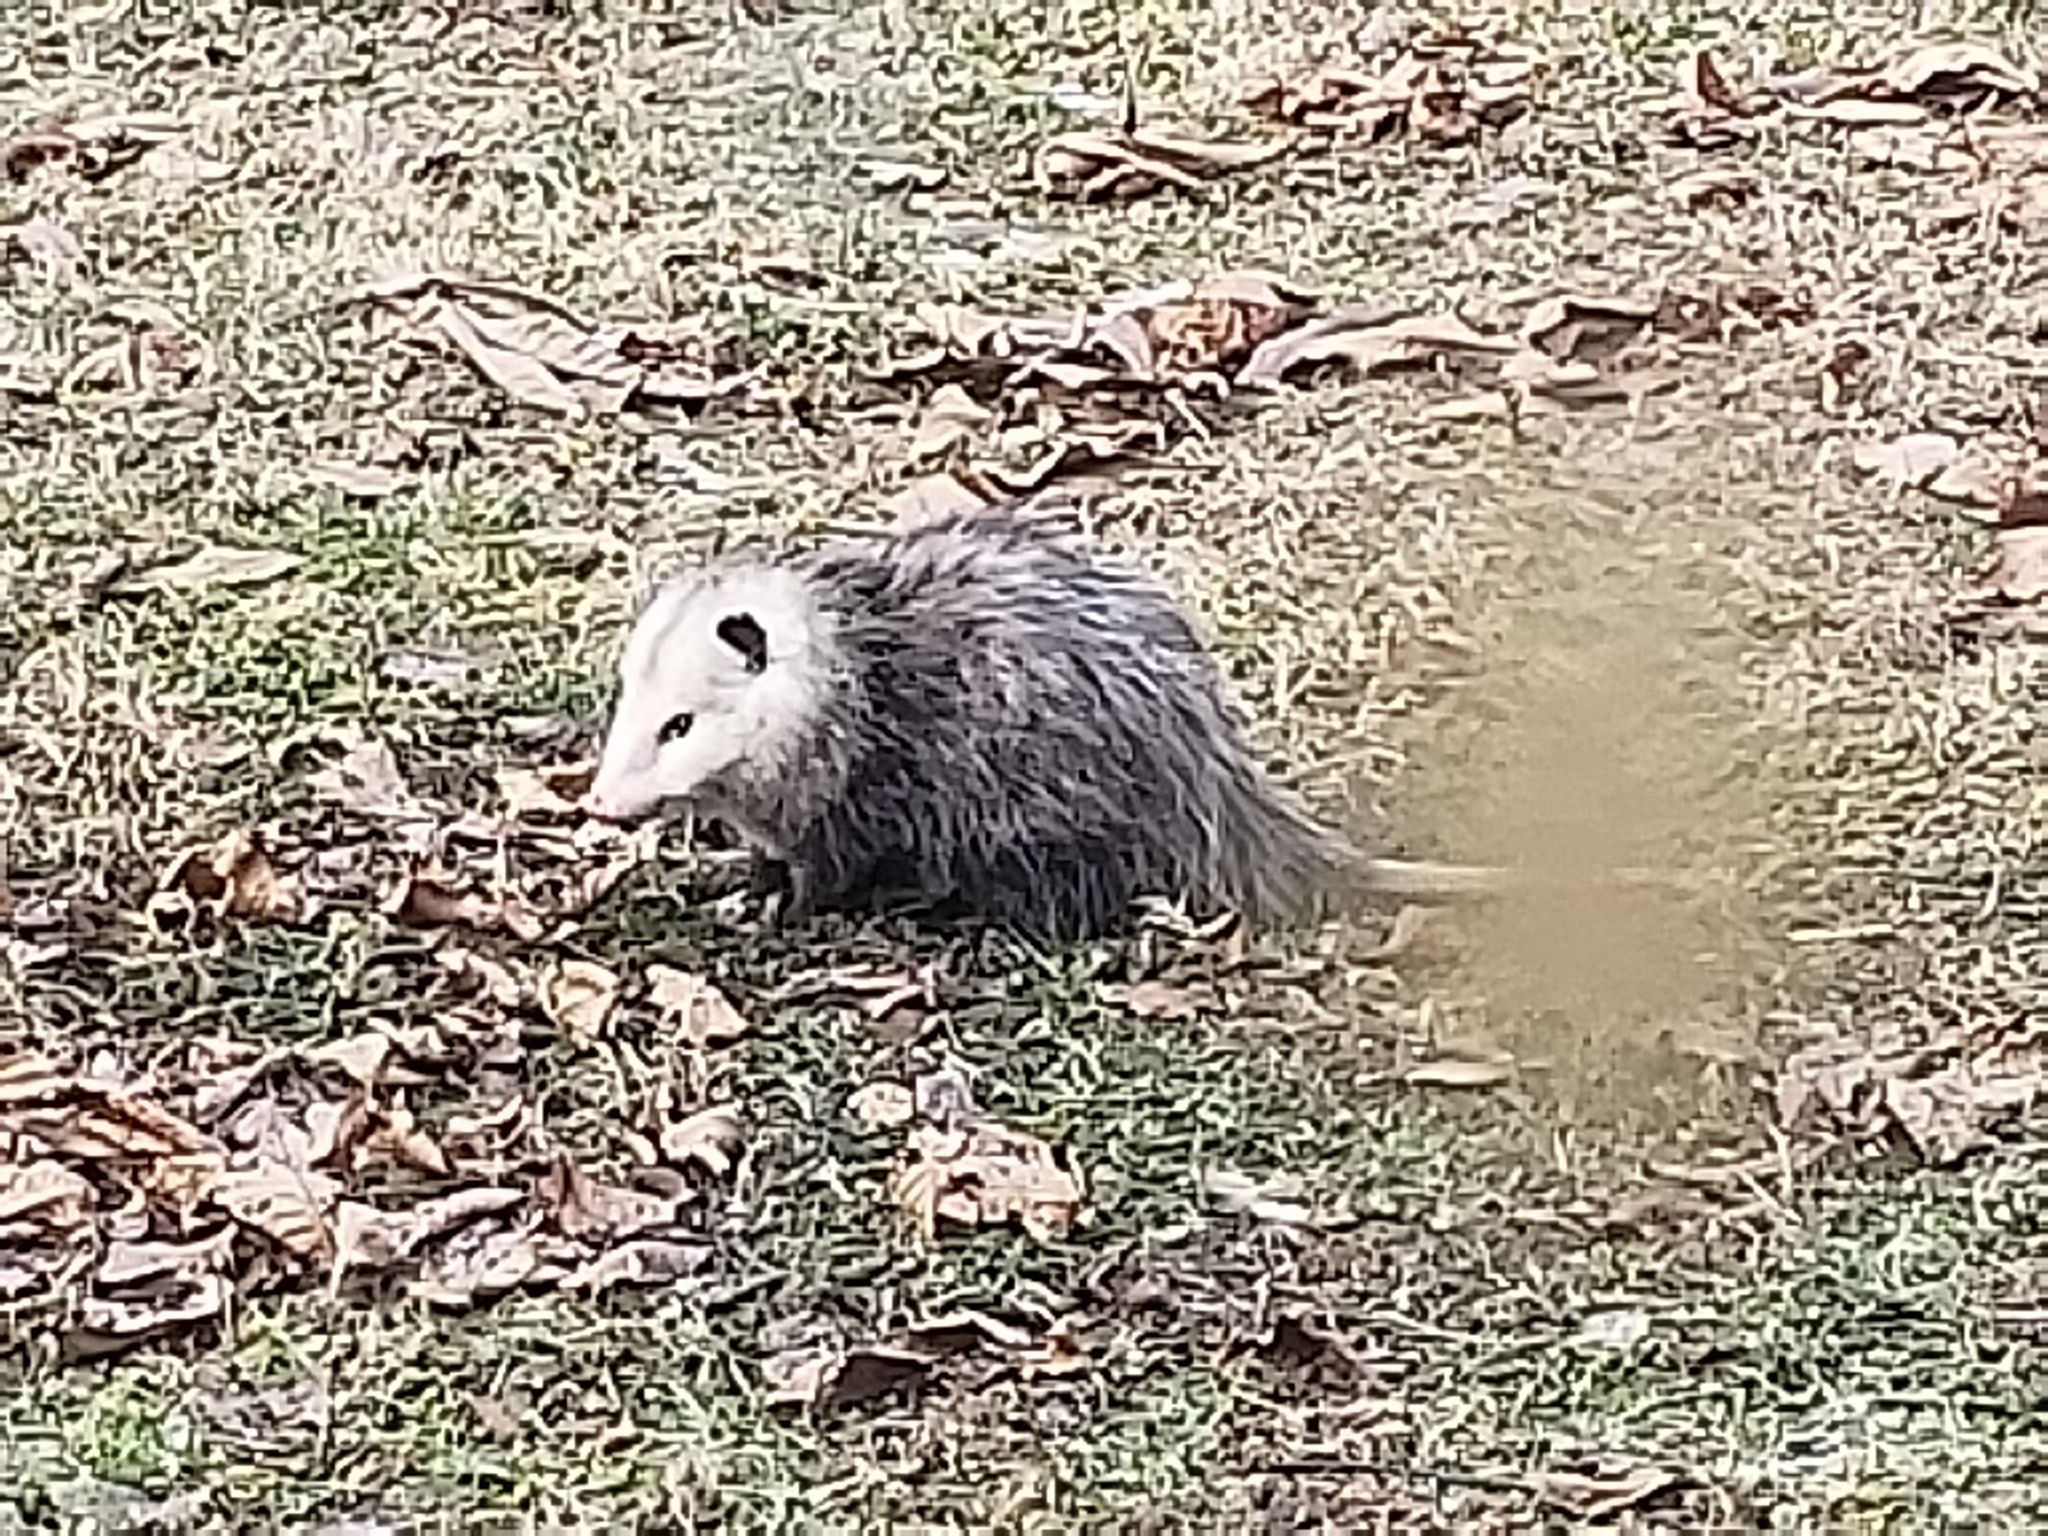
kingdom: Animalia
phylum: Chordata
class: Mammalia
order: Didelphimorphia
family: Didelphidae
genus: Didelphis
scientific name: Didelphis virginiana
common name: Virginia opossum
